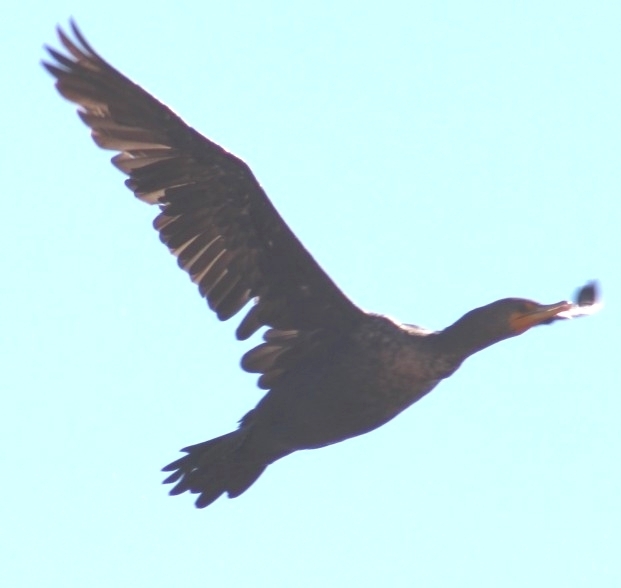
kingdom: Animalia
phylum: Chordata
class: Aves
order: Suliformes
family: Phalacrocoracidae
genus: Phalacrocorax
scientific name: Phalacrocorax auritus
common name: Double-crested cormorant
